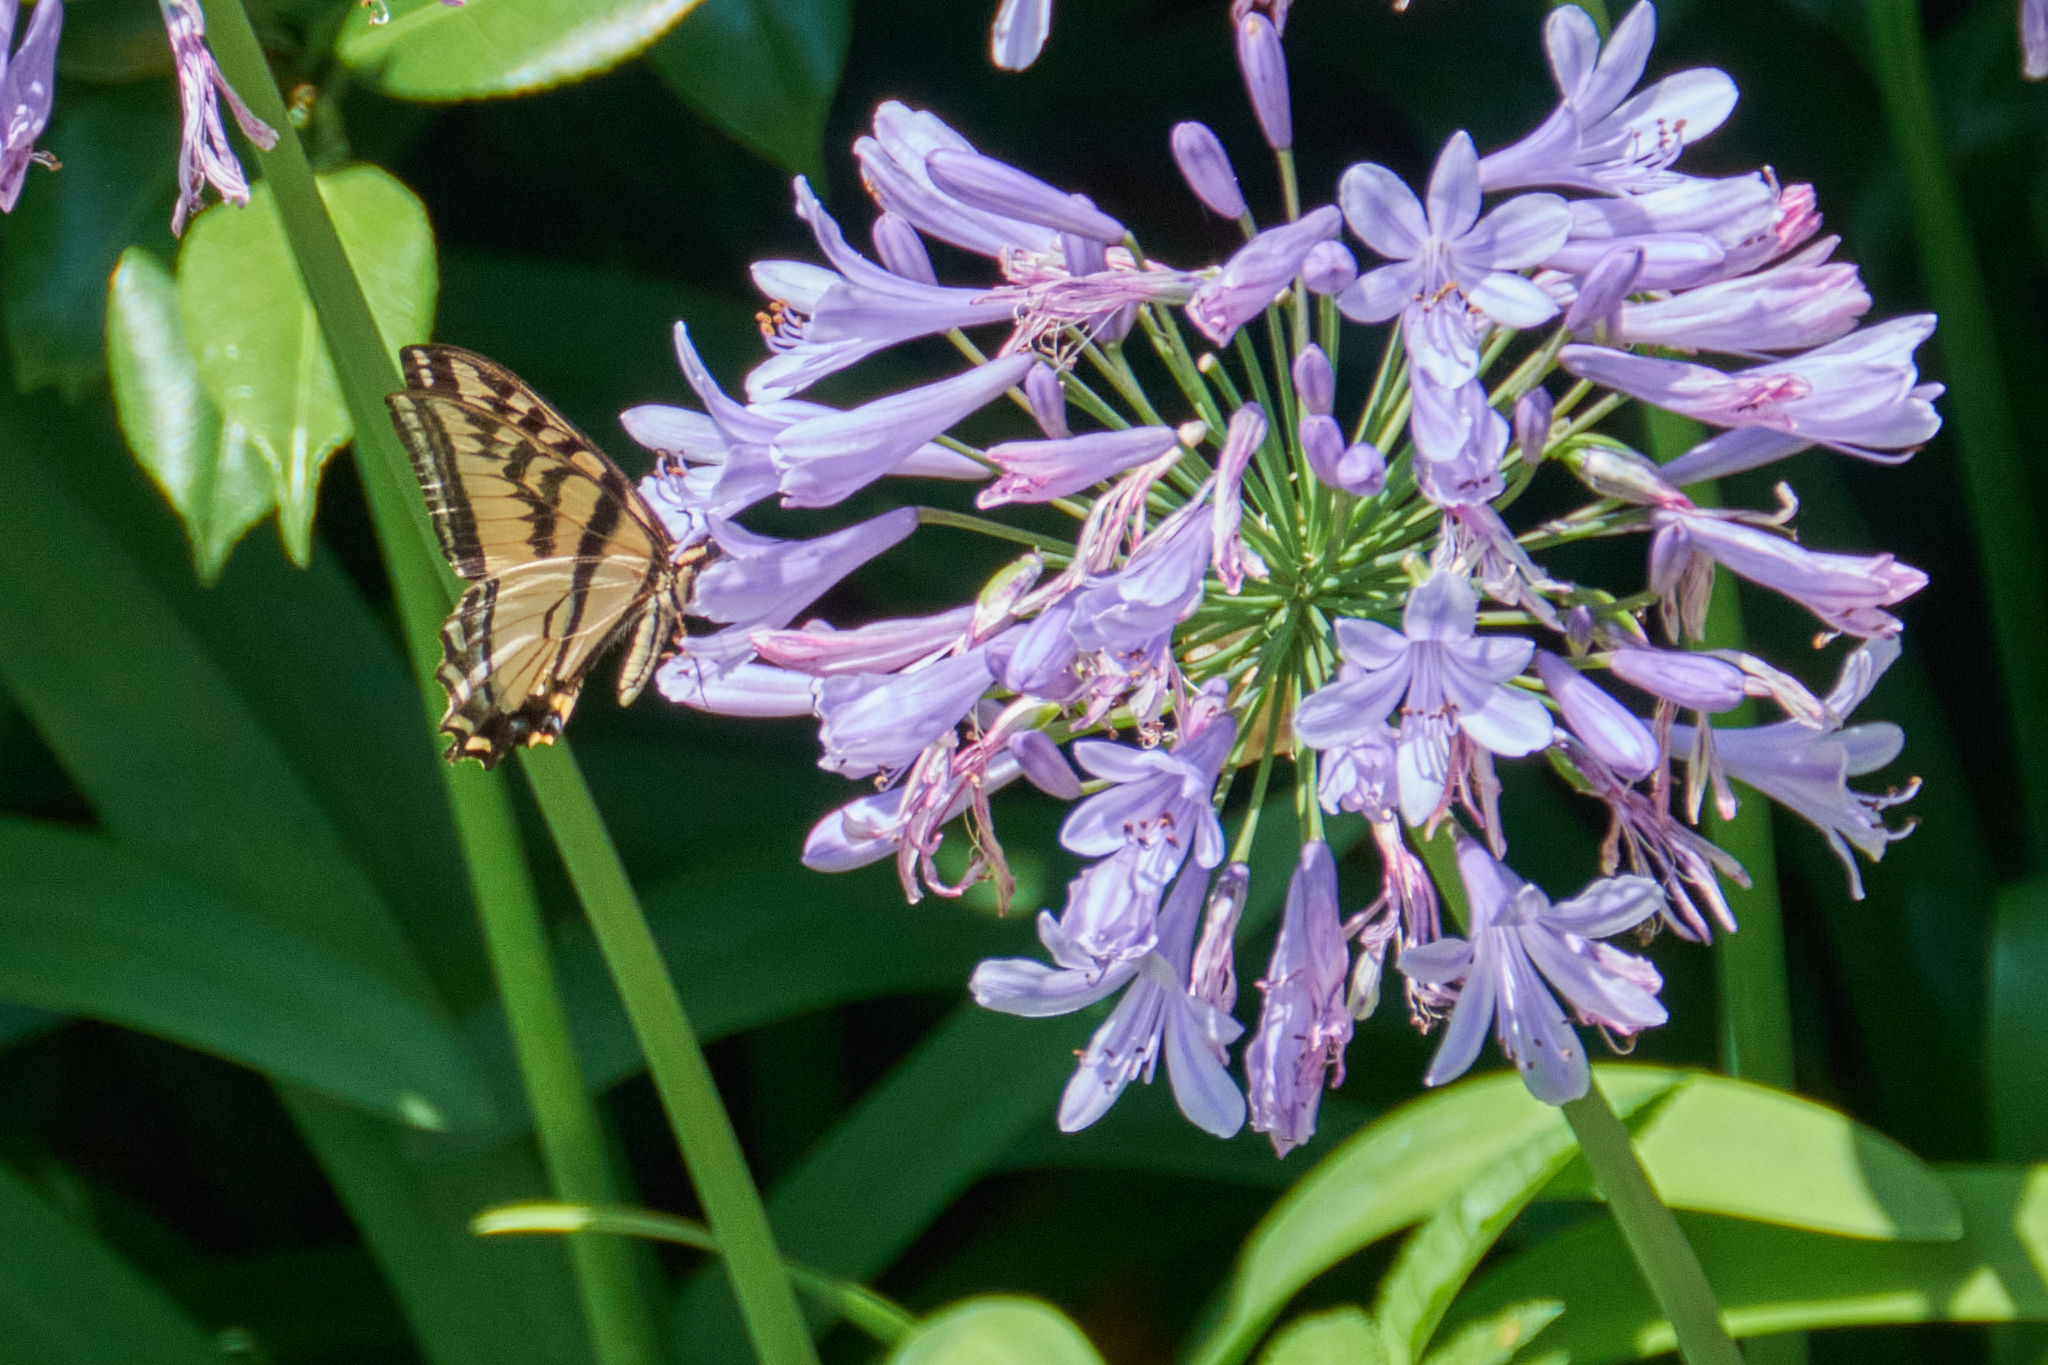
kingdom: Animalia
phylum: Arthropoda
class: Insecta
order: Lepidoptera
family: Papilionidae
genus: Papilio
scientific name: Papilio rutulus
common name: Western tiger swallowtail
